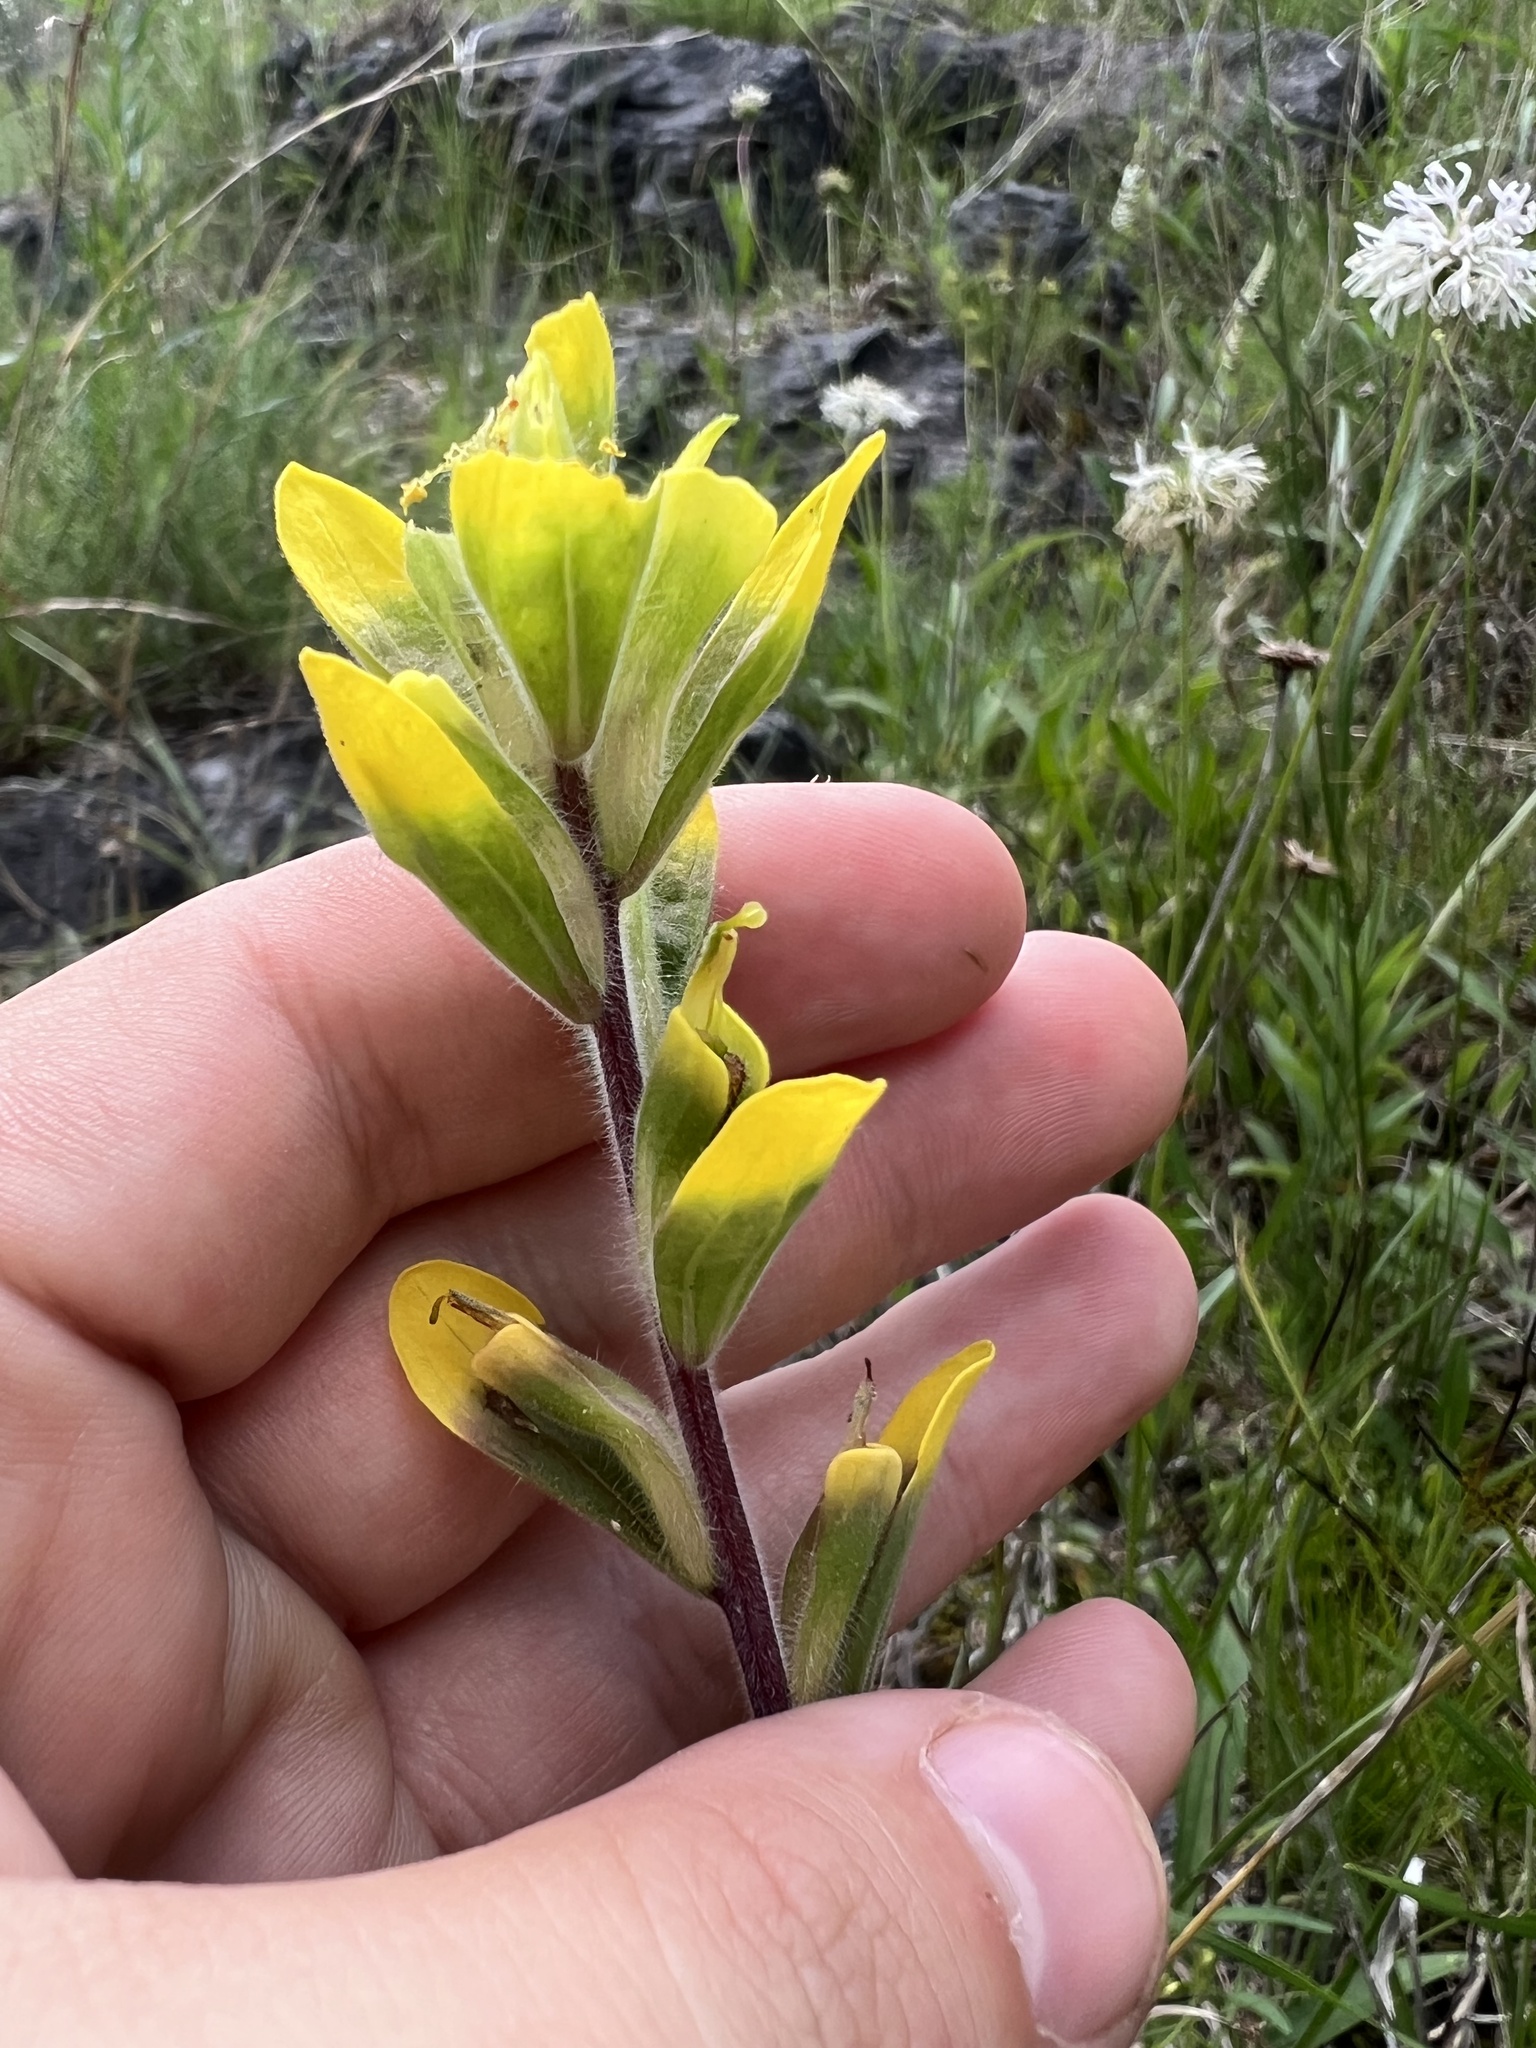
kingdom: Plantae
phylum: Tracheophyta
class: Magnoliopsida
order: Lamiales
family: Orobanchaceae
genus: Castilleja
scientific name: Castilleja kraliana
